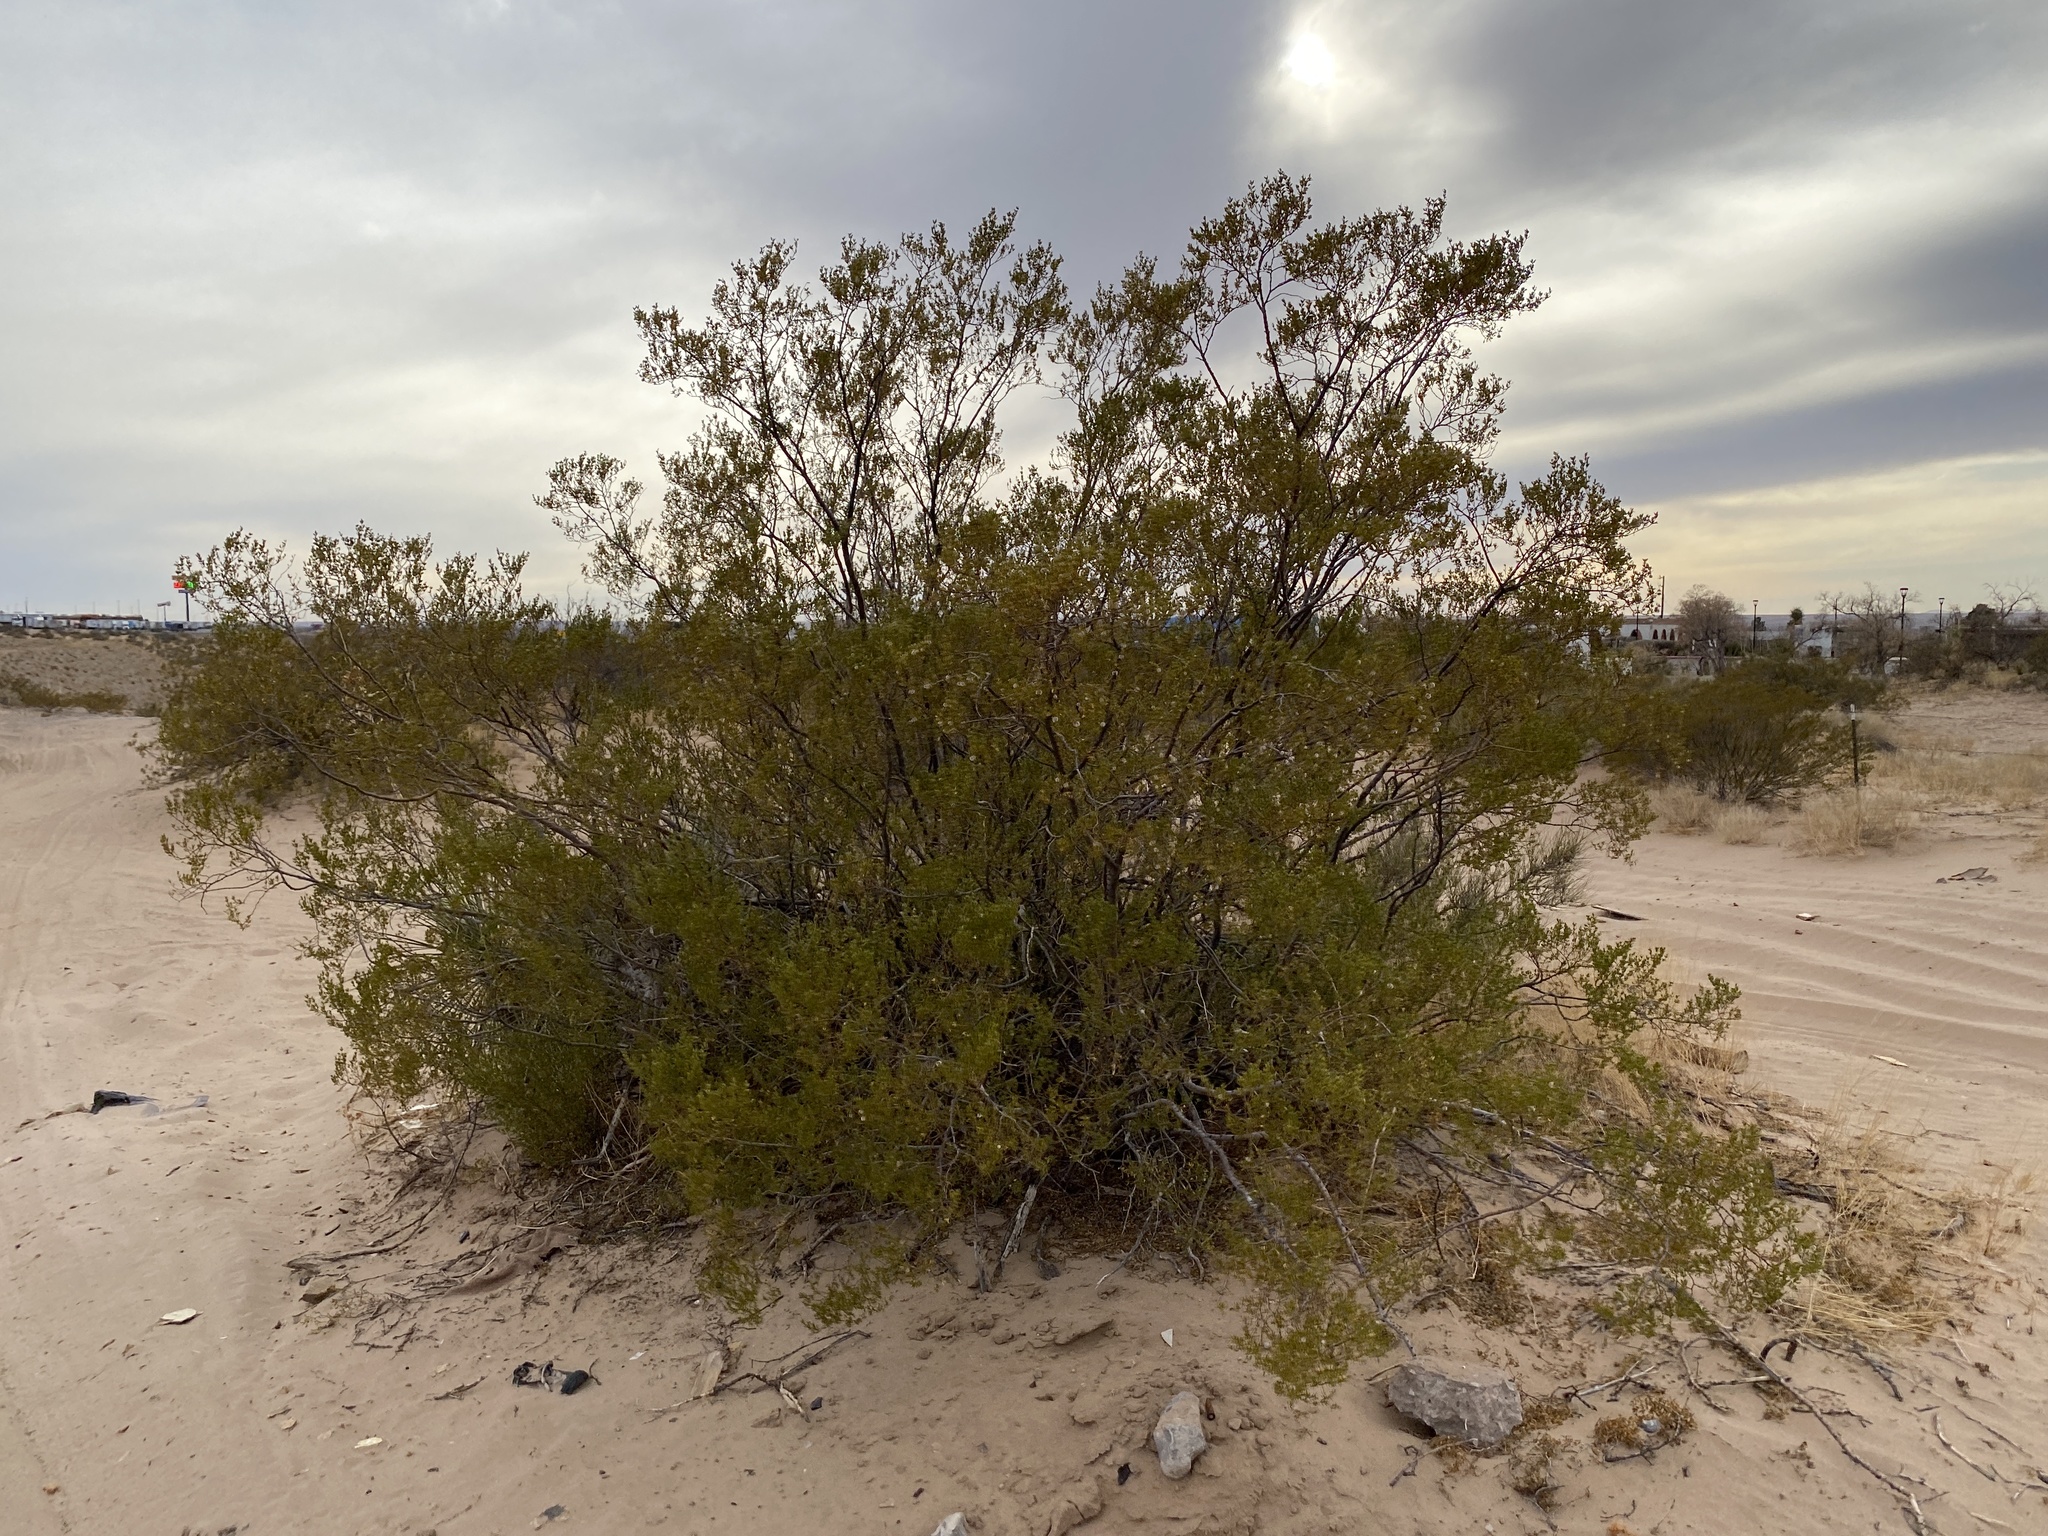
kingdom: Plantae
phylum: Tracheophyta
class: Magnoliopsida
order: Zygophyllales
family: Zygophyllaceae
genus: Larrea
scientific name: Larrea tridentata
